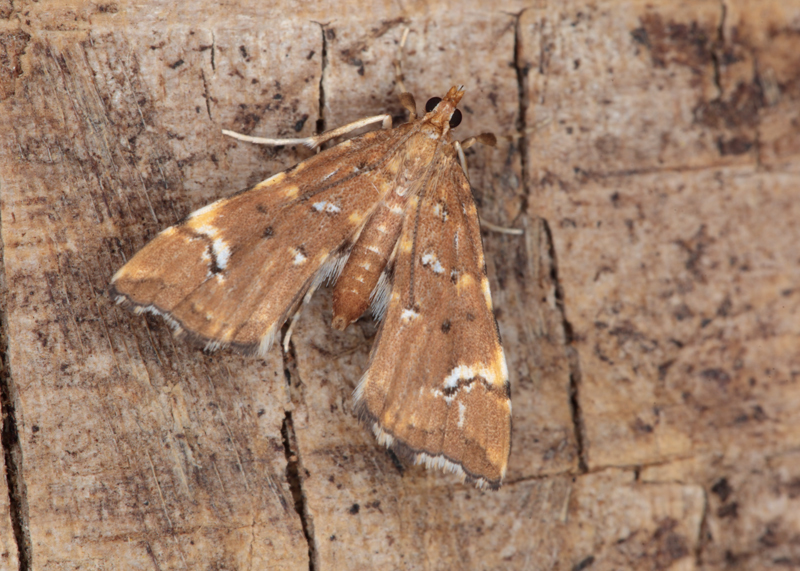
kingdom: Animalia
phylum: Arthropoda
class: Insecta
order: Lepidoptera
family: Pyralidae
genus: Musotima
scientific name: Musotima nitidalis
